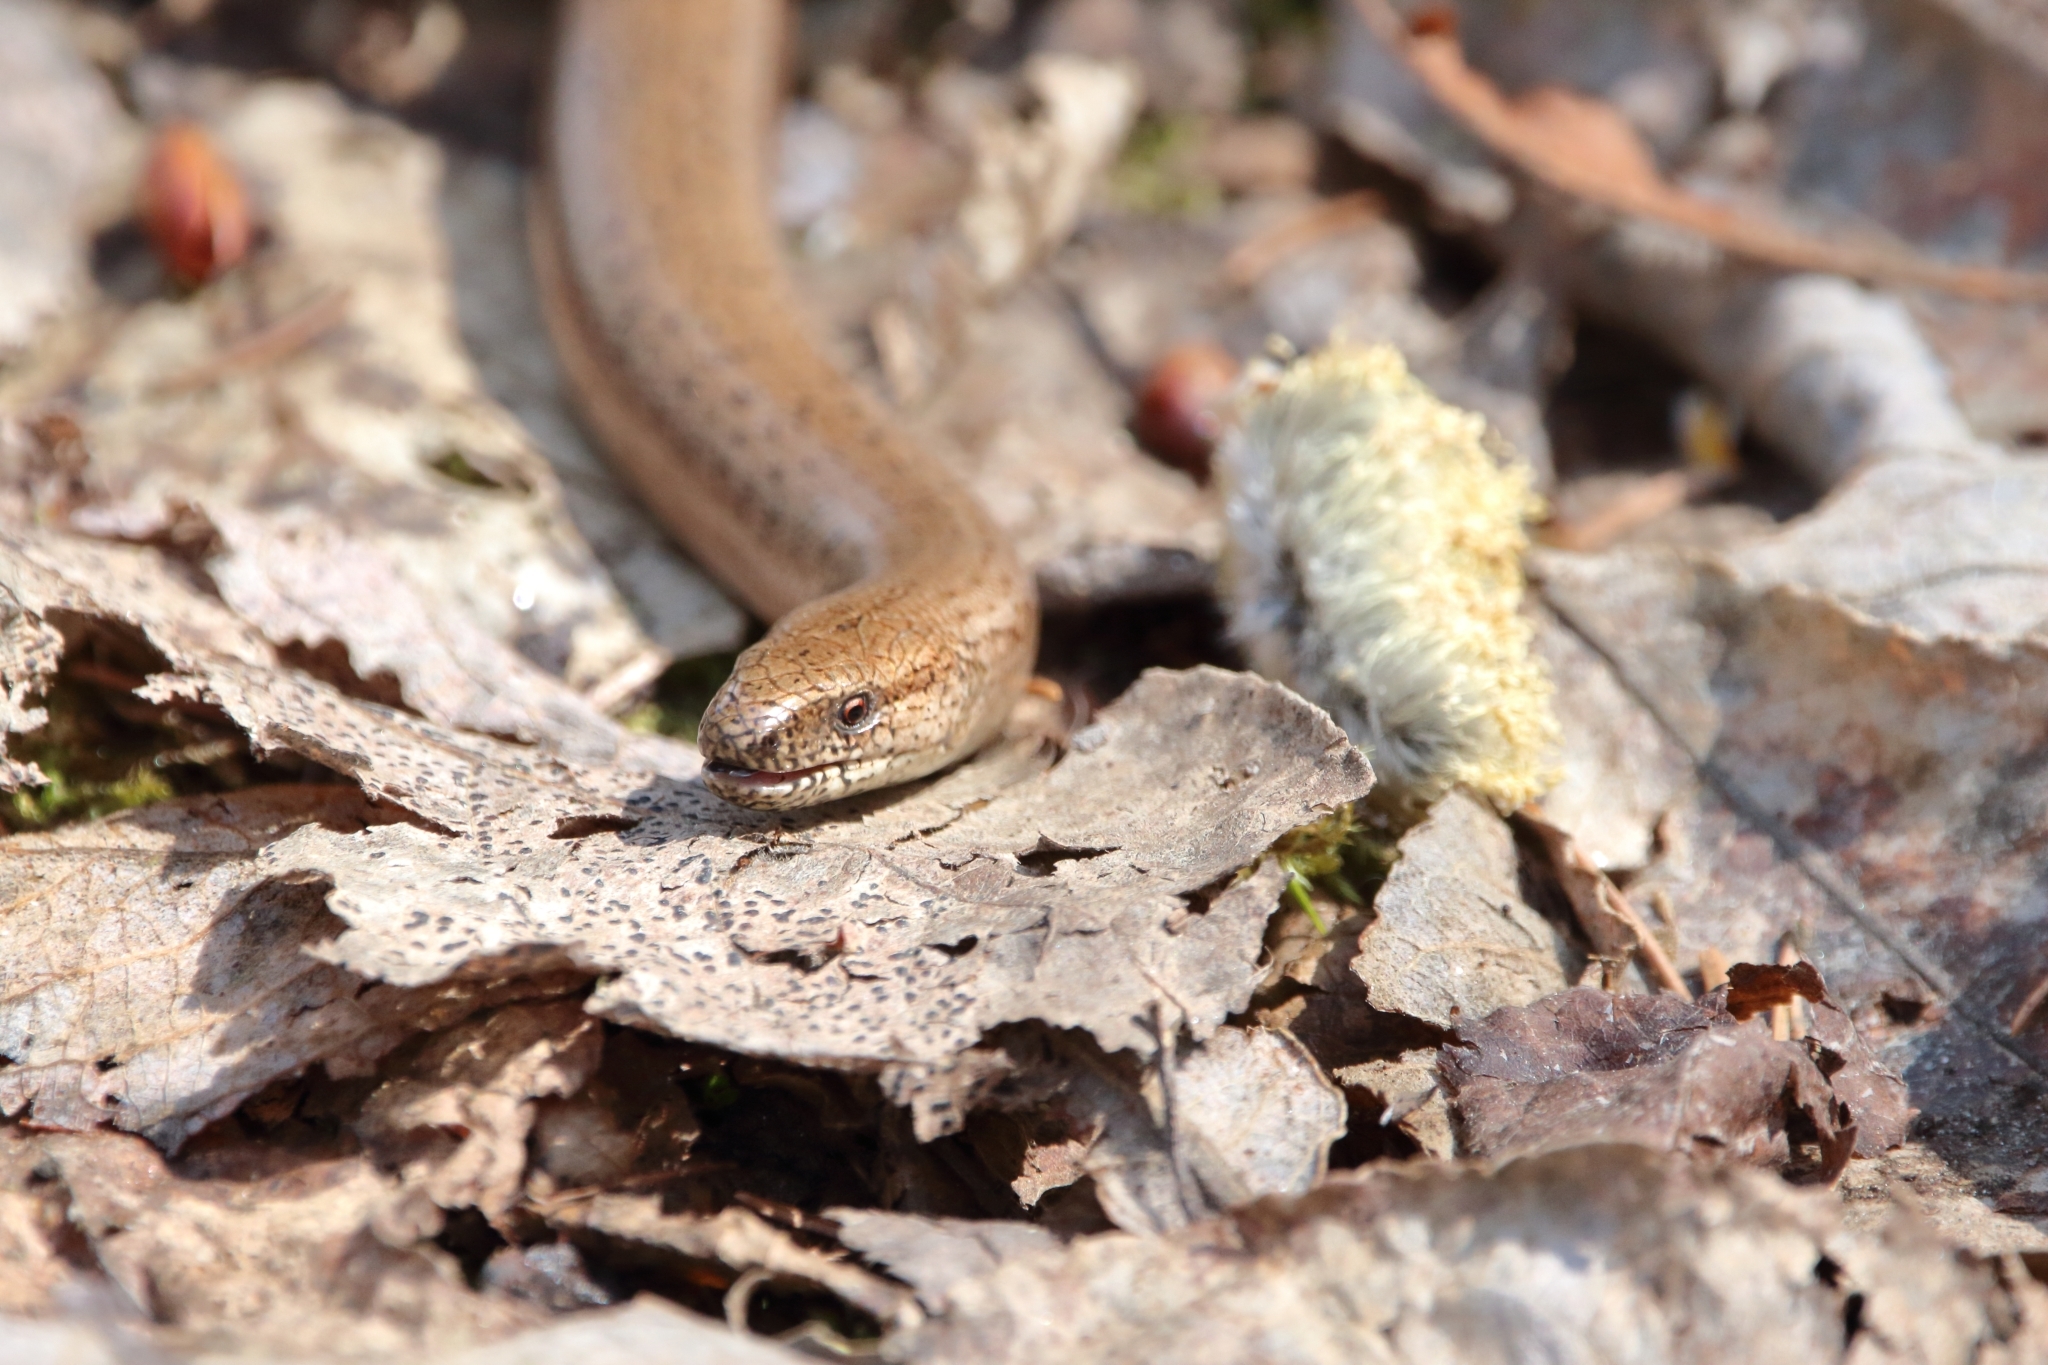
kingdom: Animalia
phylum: Chordata
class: Squamata
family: Anguidae
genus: Anguis
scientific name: Anguis fragilis
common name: Slow worm
